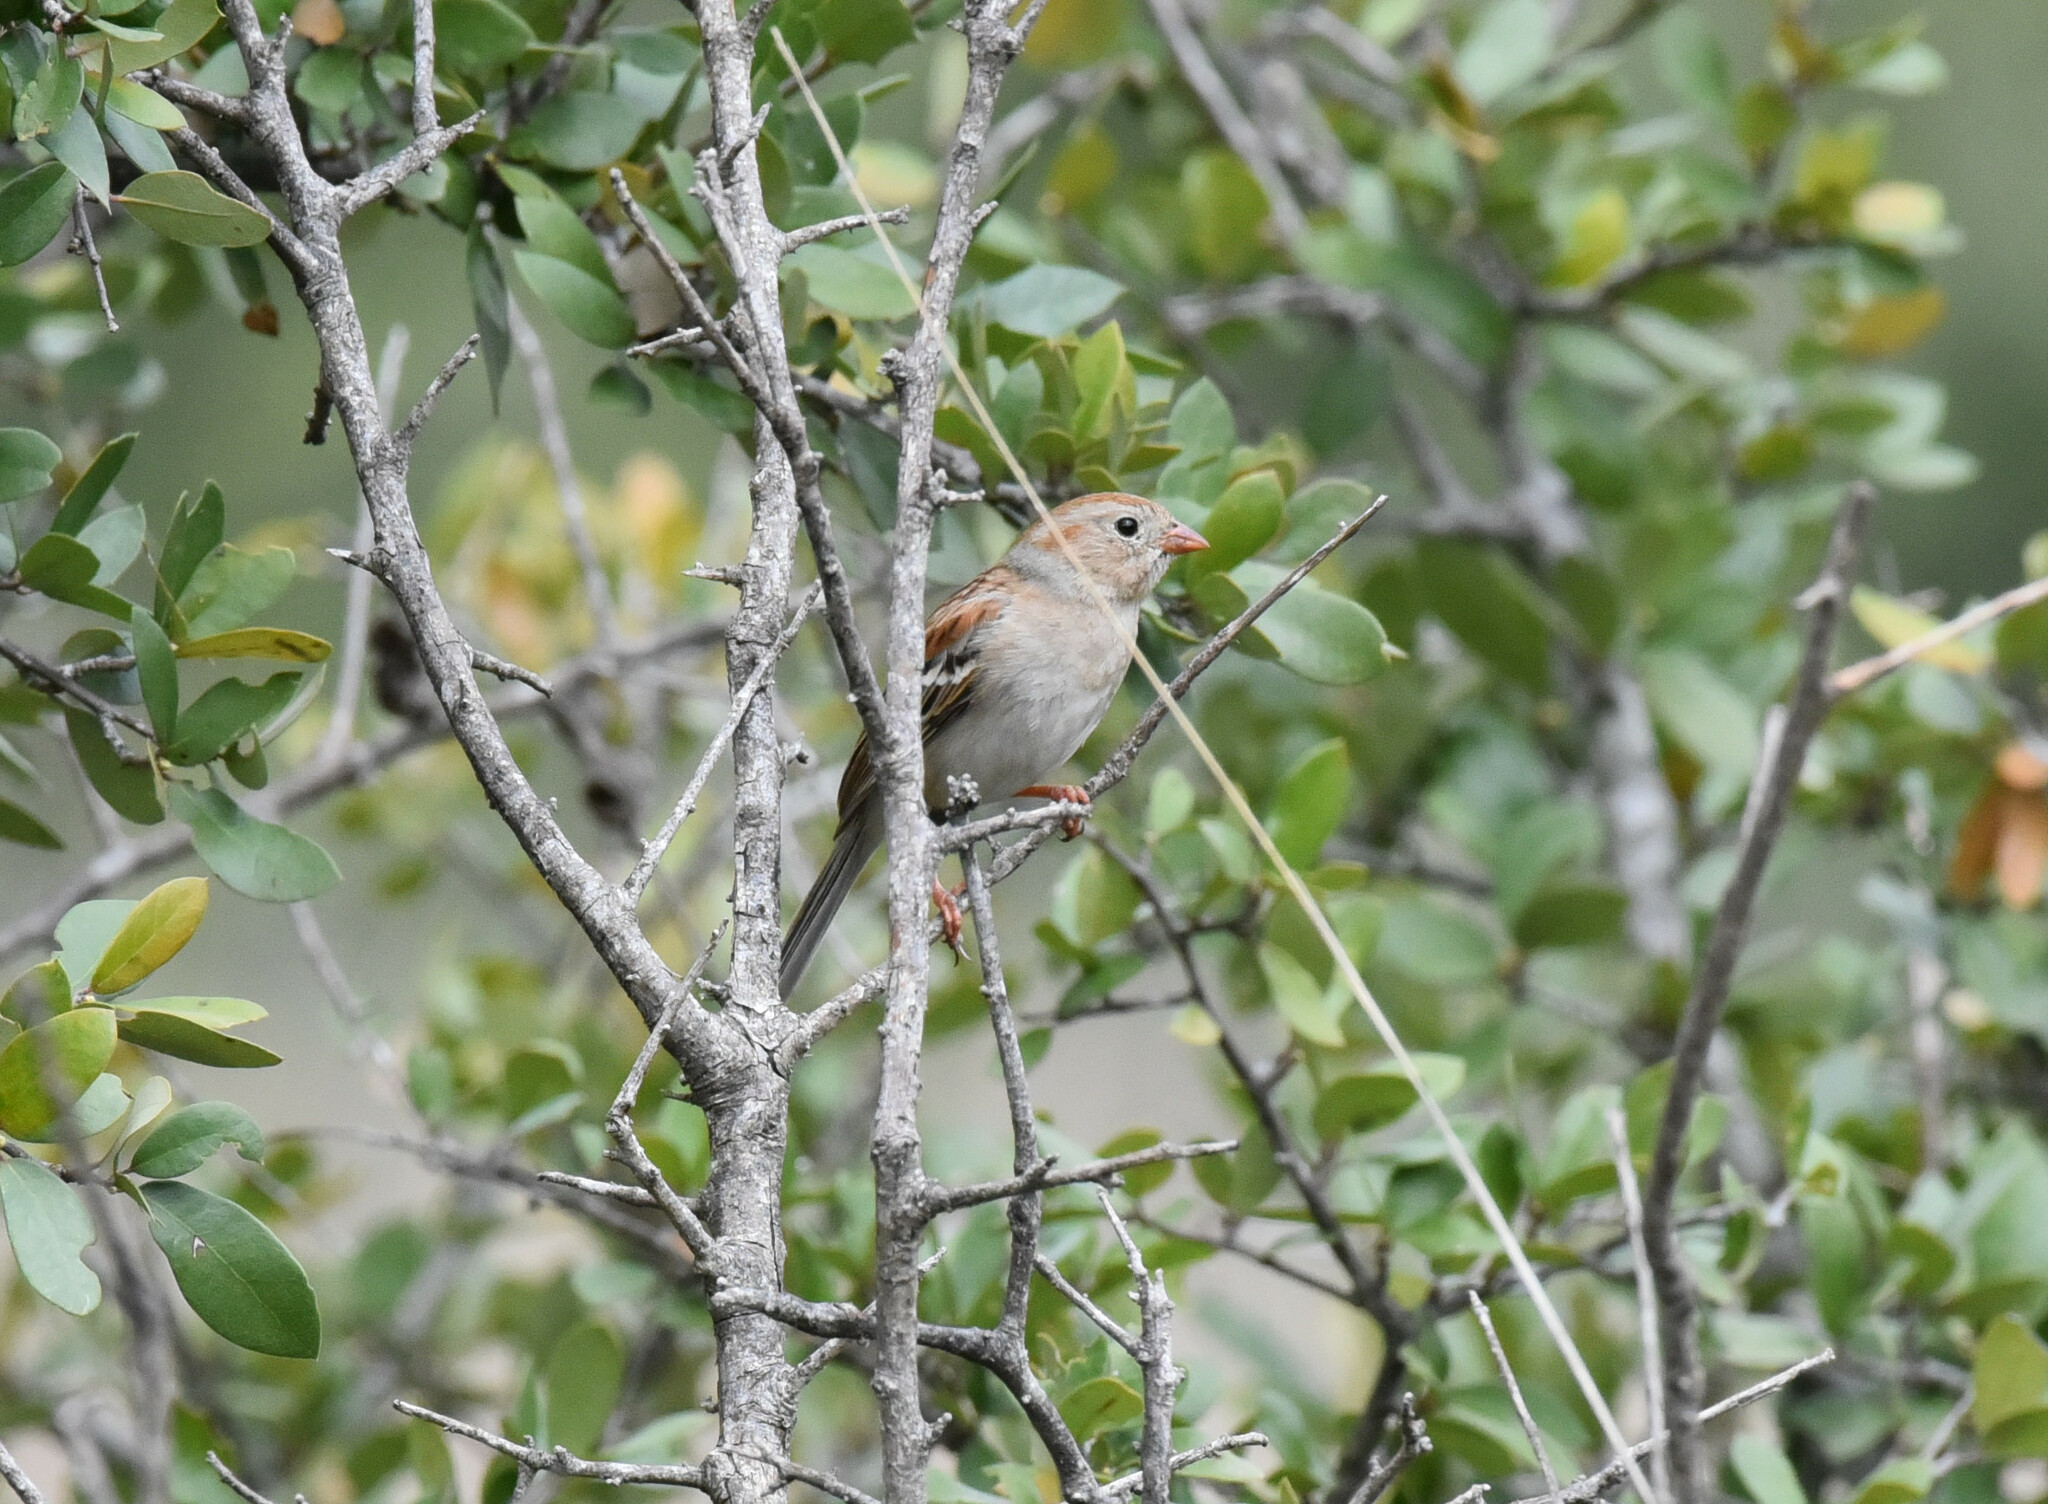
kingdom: Animalia
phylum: Chordata
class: Aves
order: Passeriformes
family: Passerellidae
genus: Spizella
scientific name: Spizella pusilla
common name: Field sparrow
